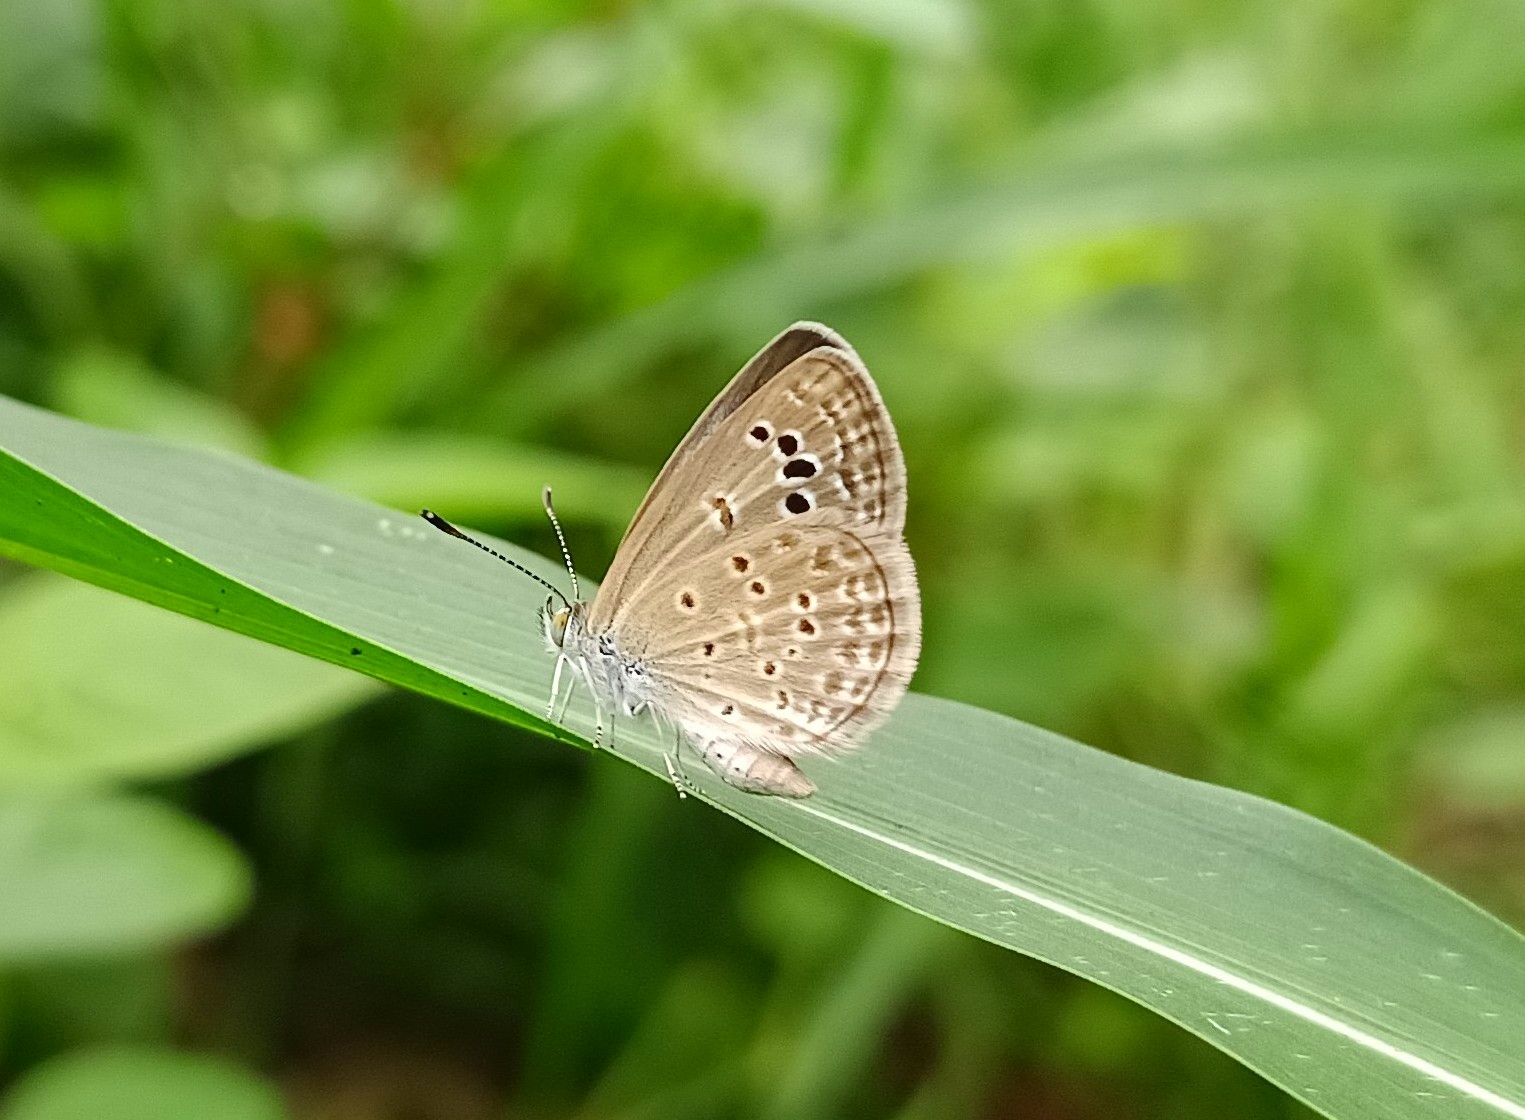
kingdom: Animalia
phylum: Arthropoda
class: Insecta
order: Lepidoptera
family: Lycaenidae
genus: Zizina
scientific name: Zizina otis
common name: Lesser grass blue
